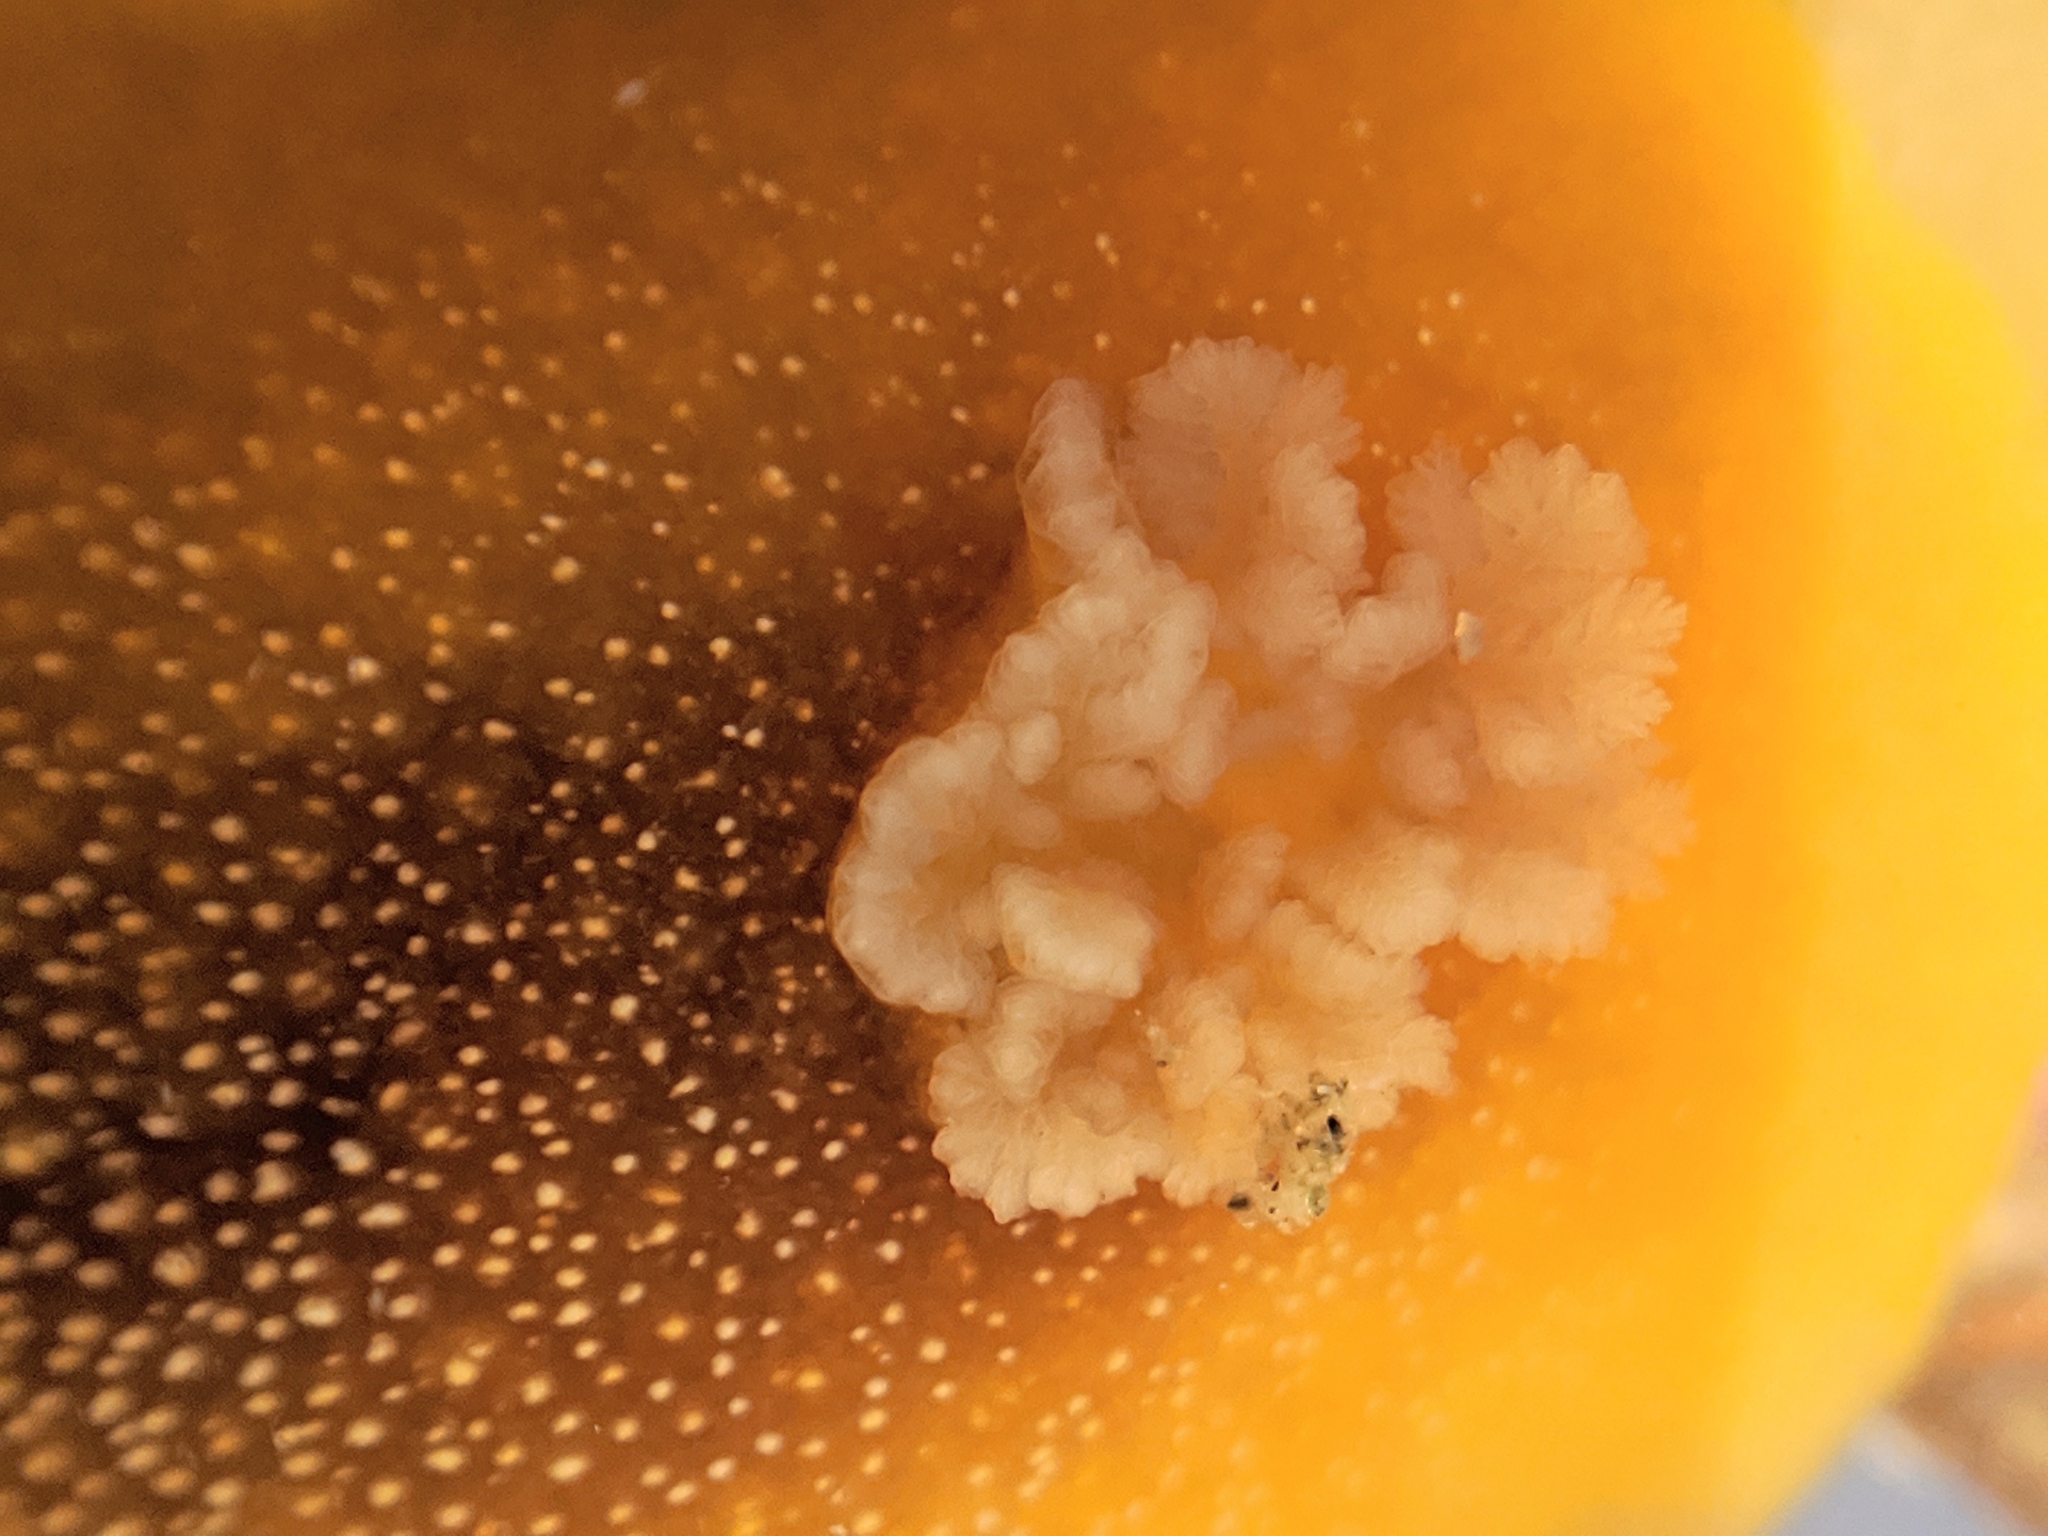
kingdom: Animalia
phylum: Mollusca
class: Gastropoda
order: Nudibranchia
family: Dendrodorididae
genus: Doriopsilla
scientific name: Doriopsilla albopunctata
